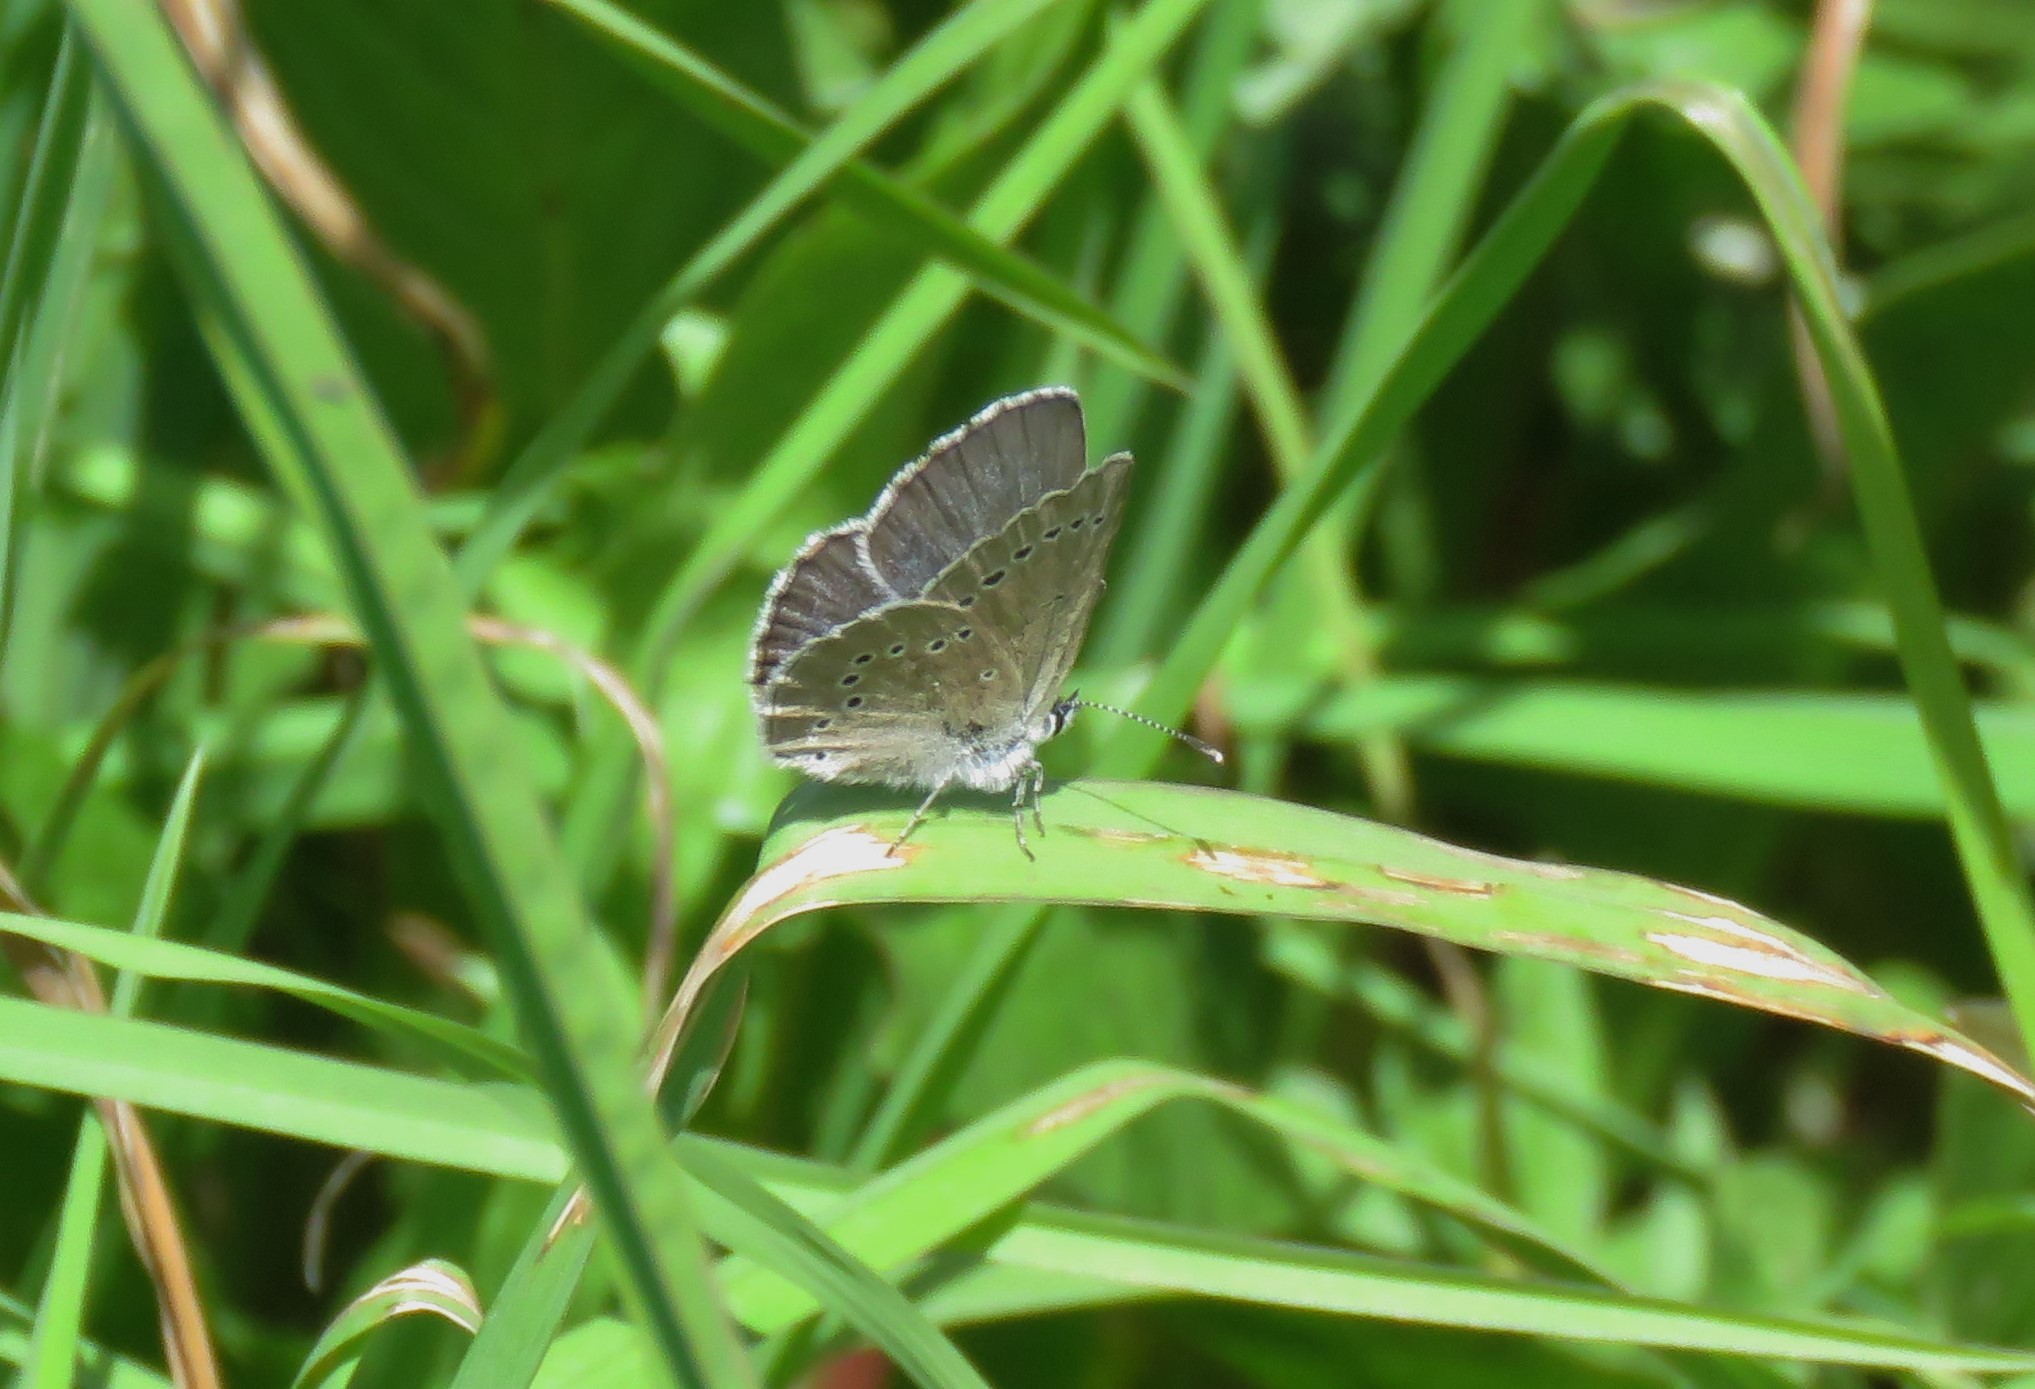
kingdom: Animalia
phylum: Arthropoda
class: Insecta
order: Lepidoptera
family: Lycaenidae
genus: Glaucopsyche
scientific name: Glaucopsyche lygdamus
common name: Silvery blue
